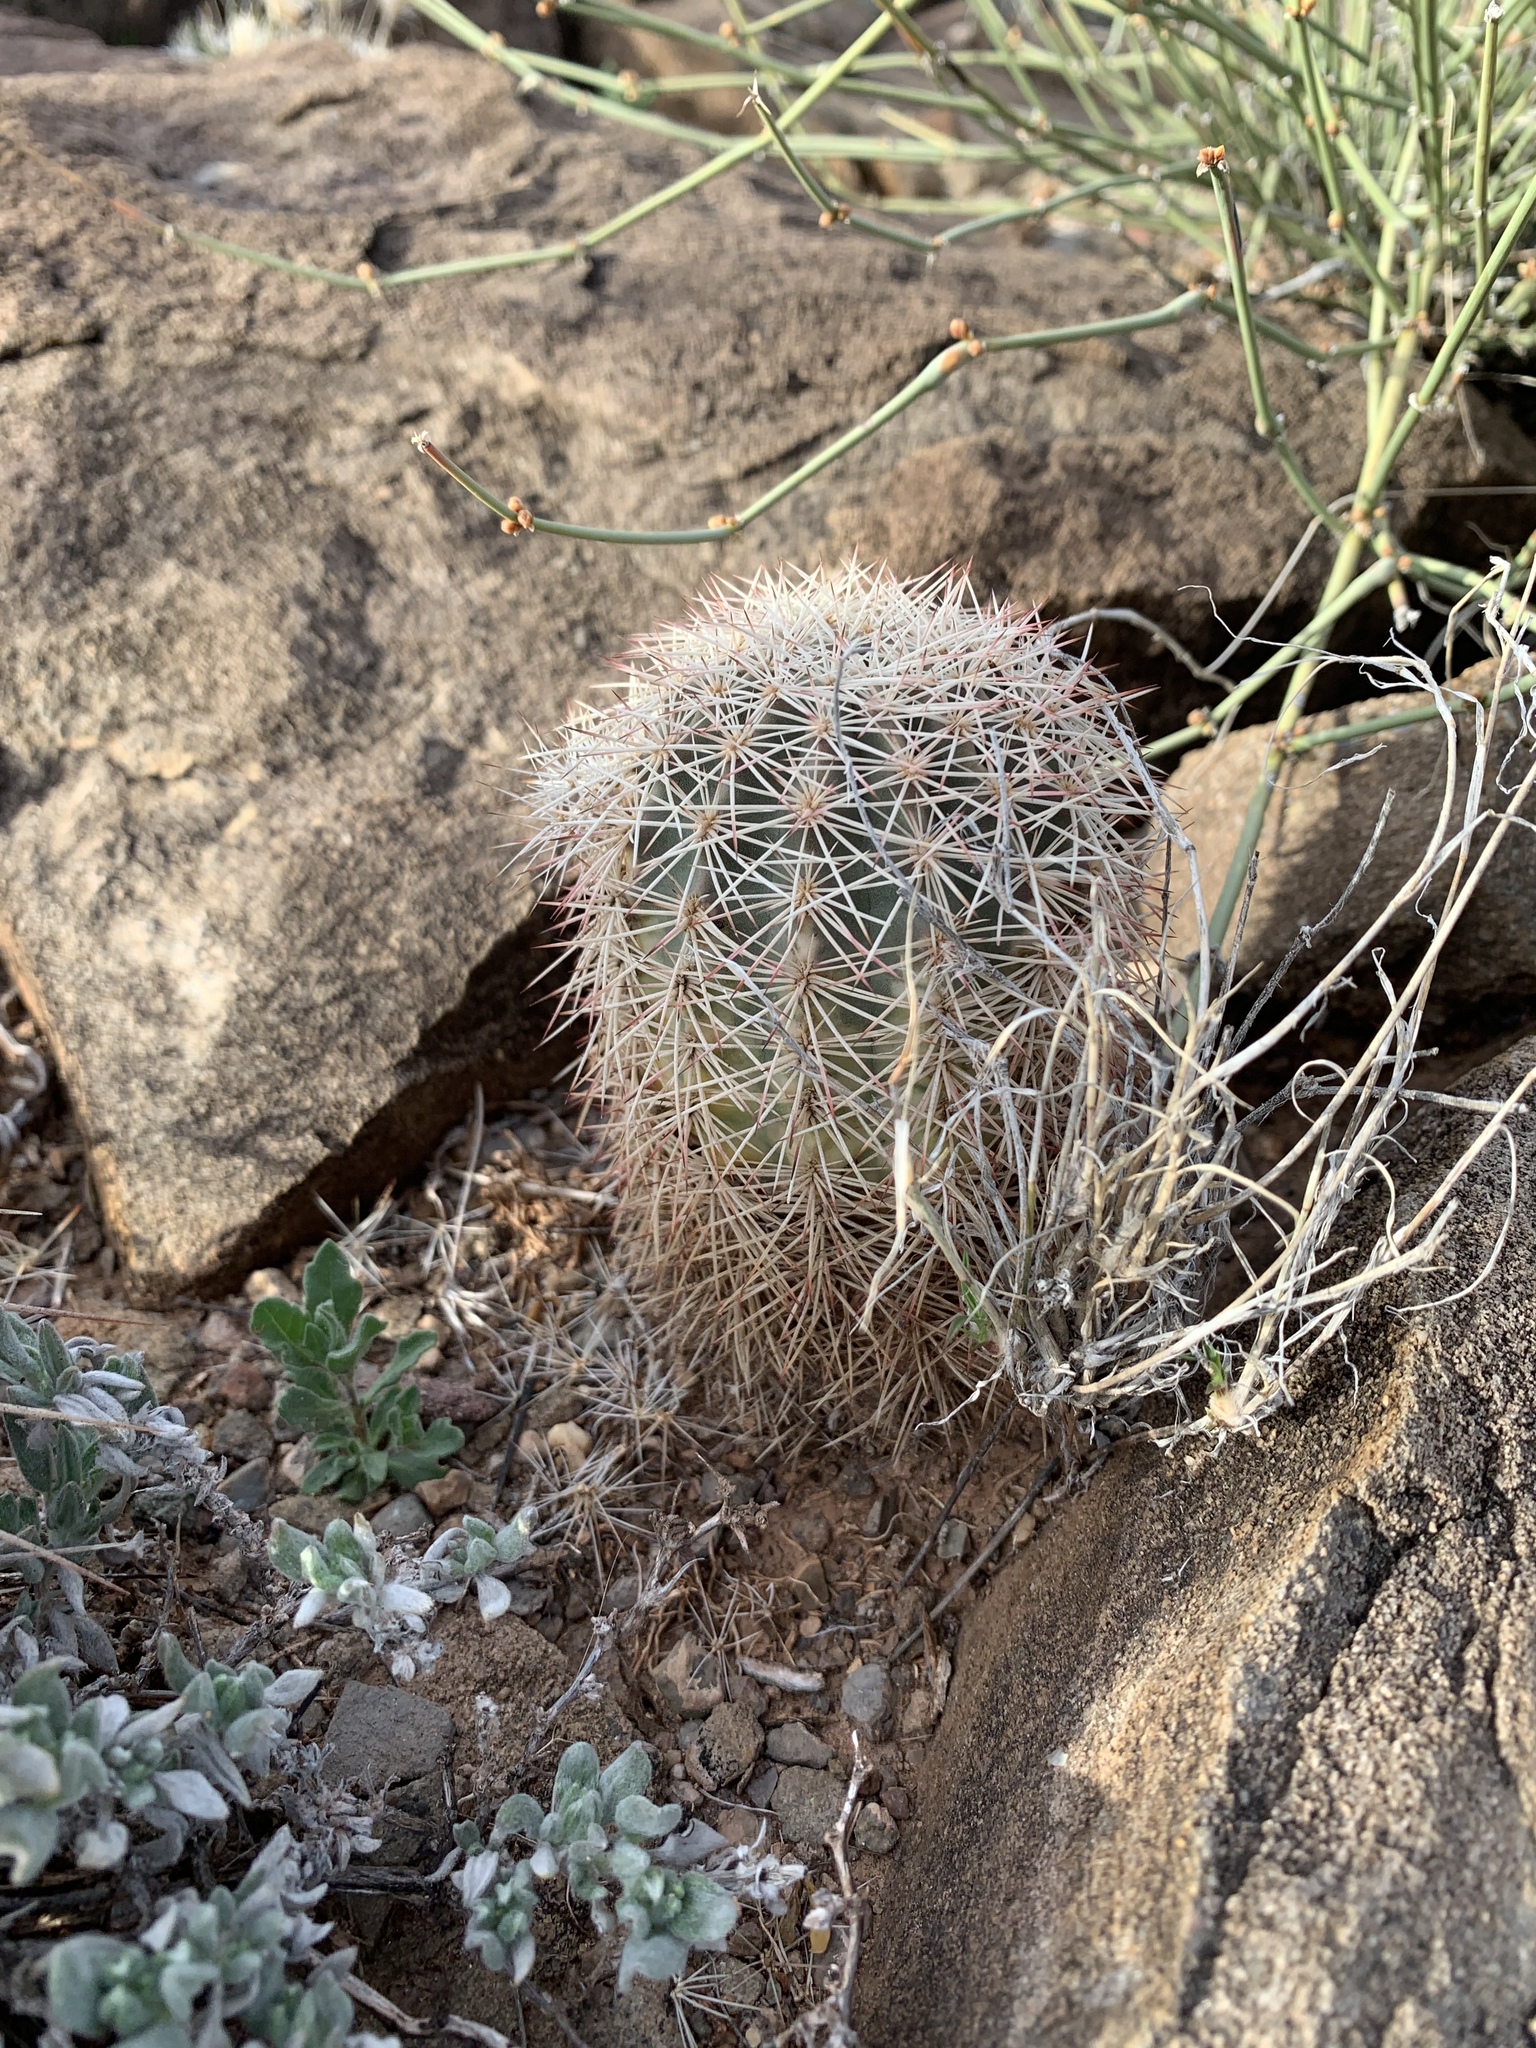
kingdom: Plantae
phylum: Tracheophyta
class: Magnoliopsida
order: Caryophyllales
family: Cactaceae
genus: Echinocereus
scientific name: Echinocereus dasyacanthus
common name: Spiny hedgehog cactus
